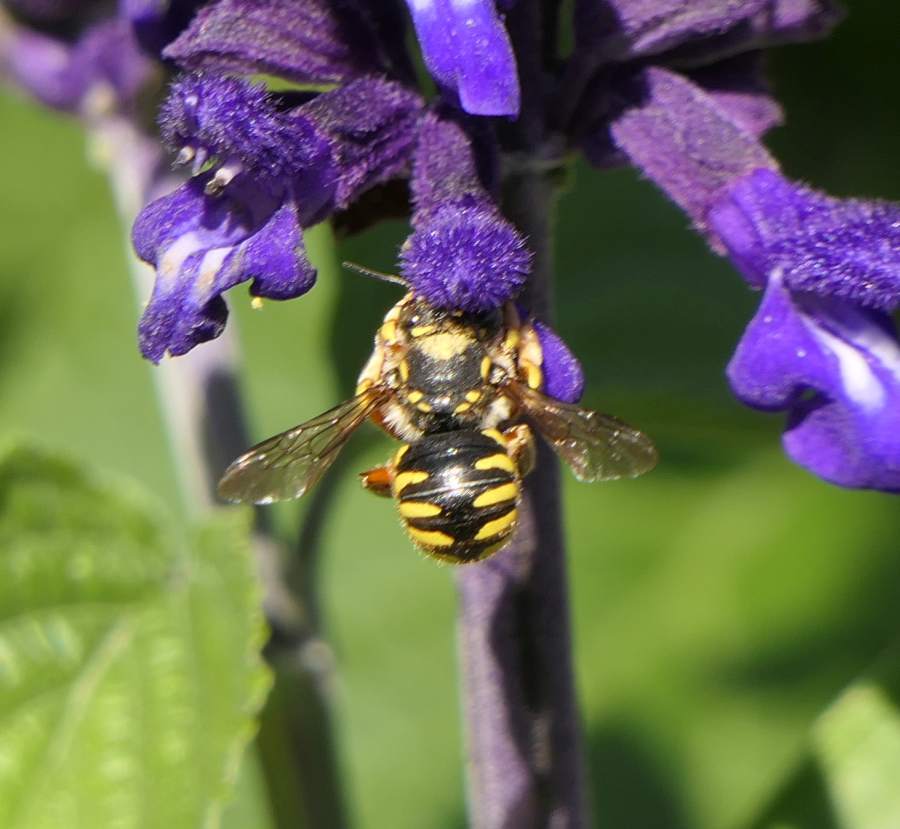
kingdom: Animalia
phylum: Arthropoda
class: Insecta
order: Hymenoptera
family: Megachilidae
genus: Anthidium
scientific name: Anthidium manicatum
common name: Wool carder bee
